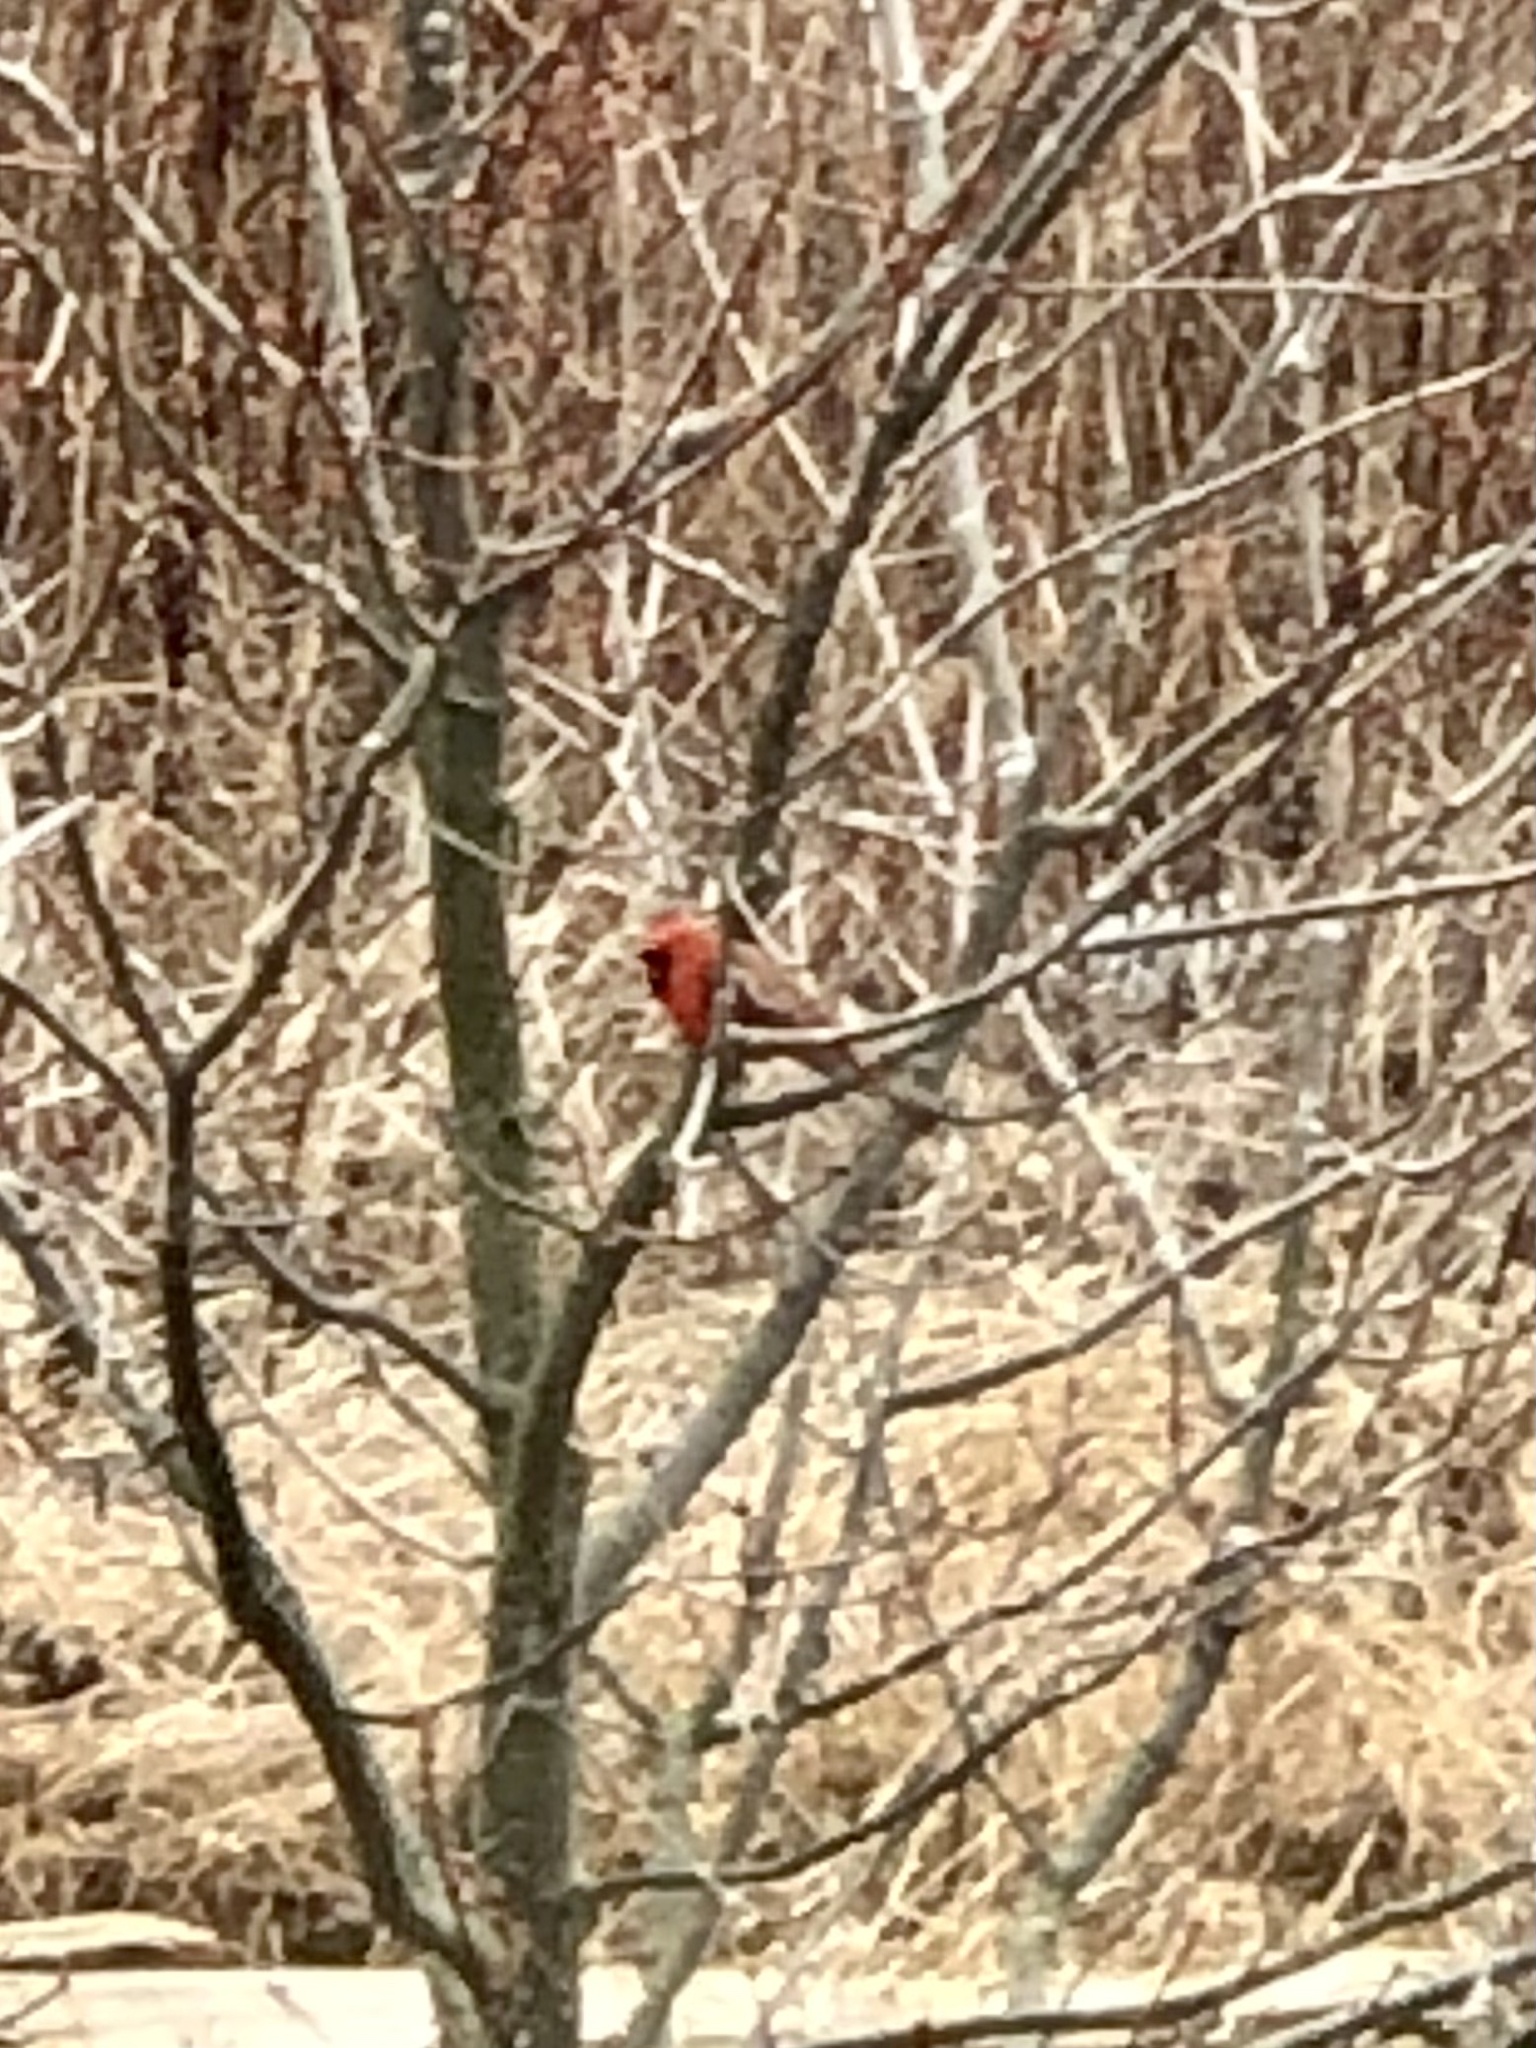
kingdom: Animalia
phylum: Chordata
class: Aves
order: Passeriformes
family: Cardinalidae
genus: Cardinalis
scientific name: Cardinalis cardinalis
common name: Northern cardinal
